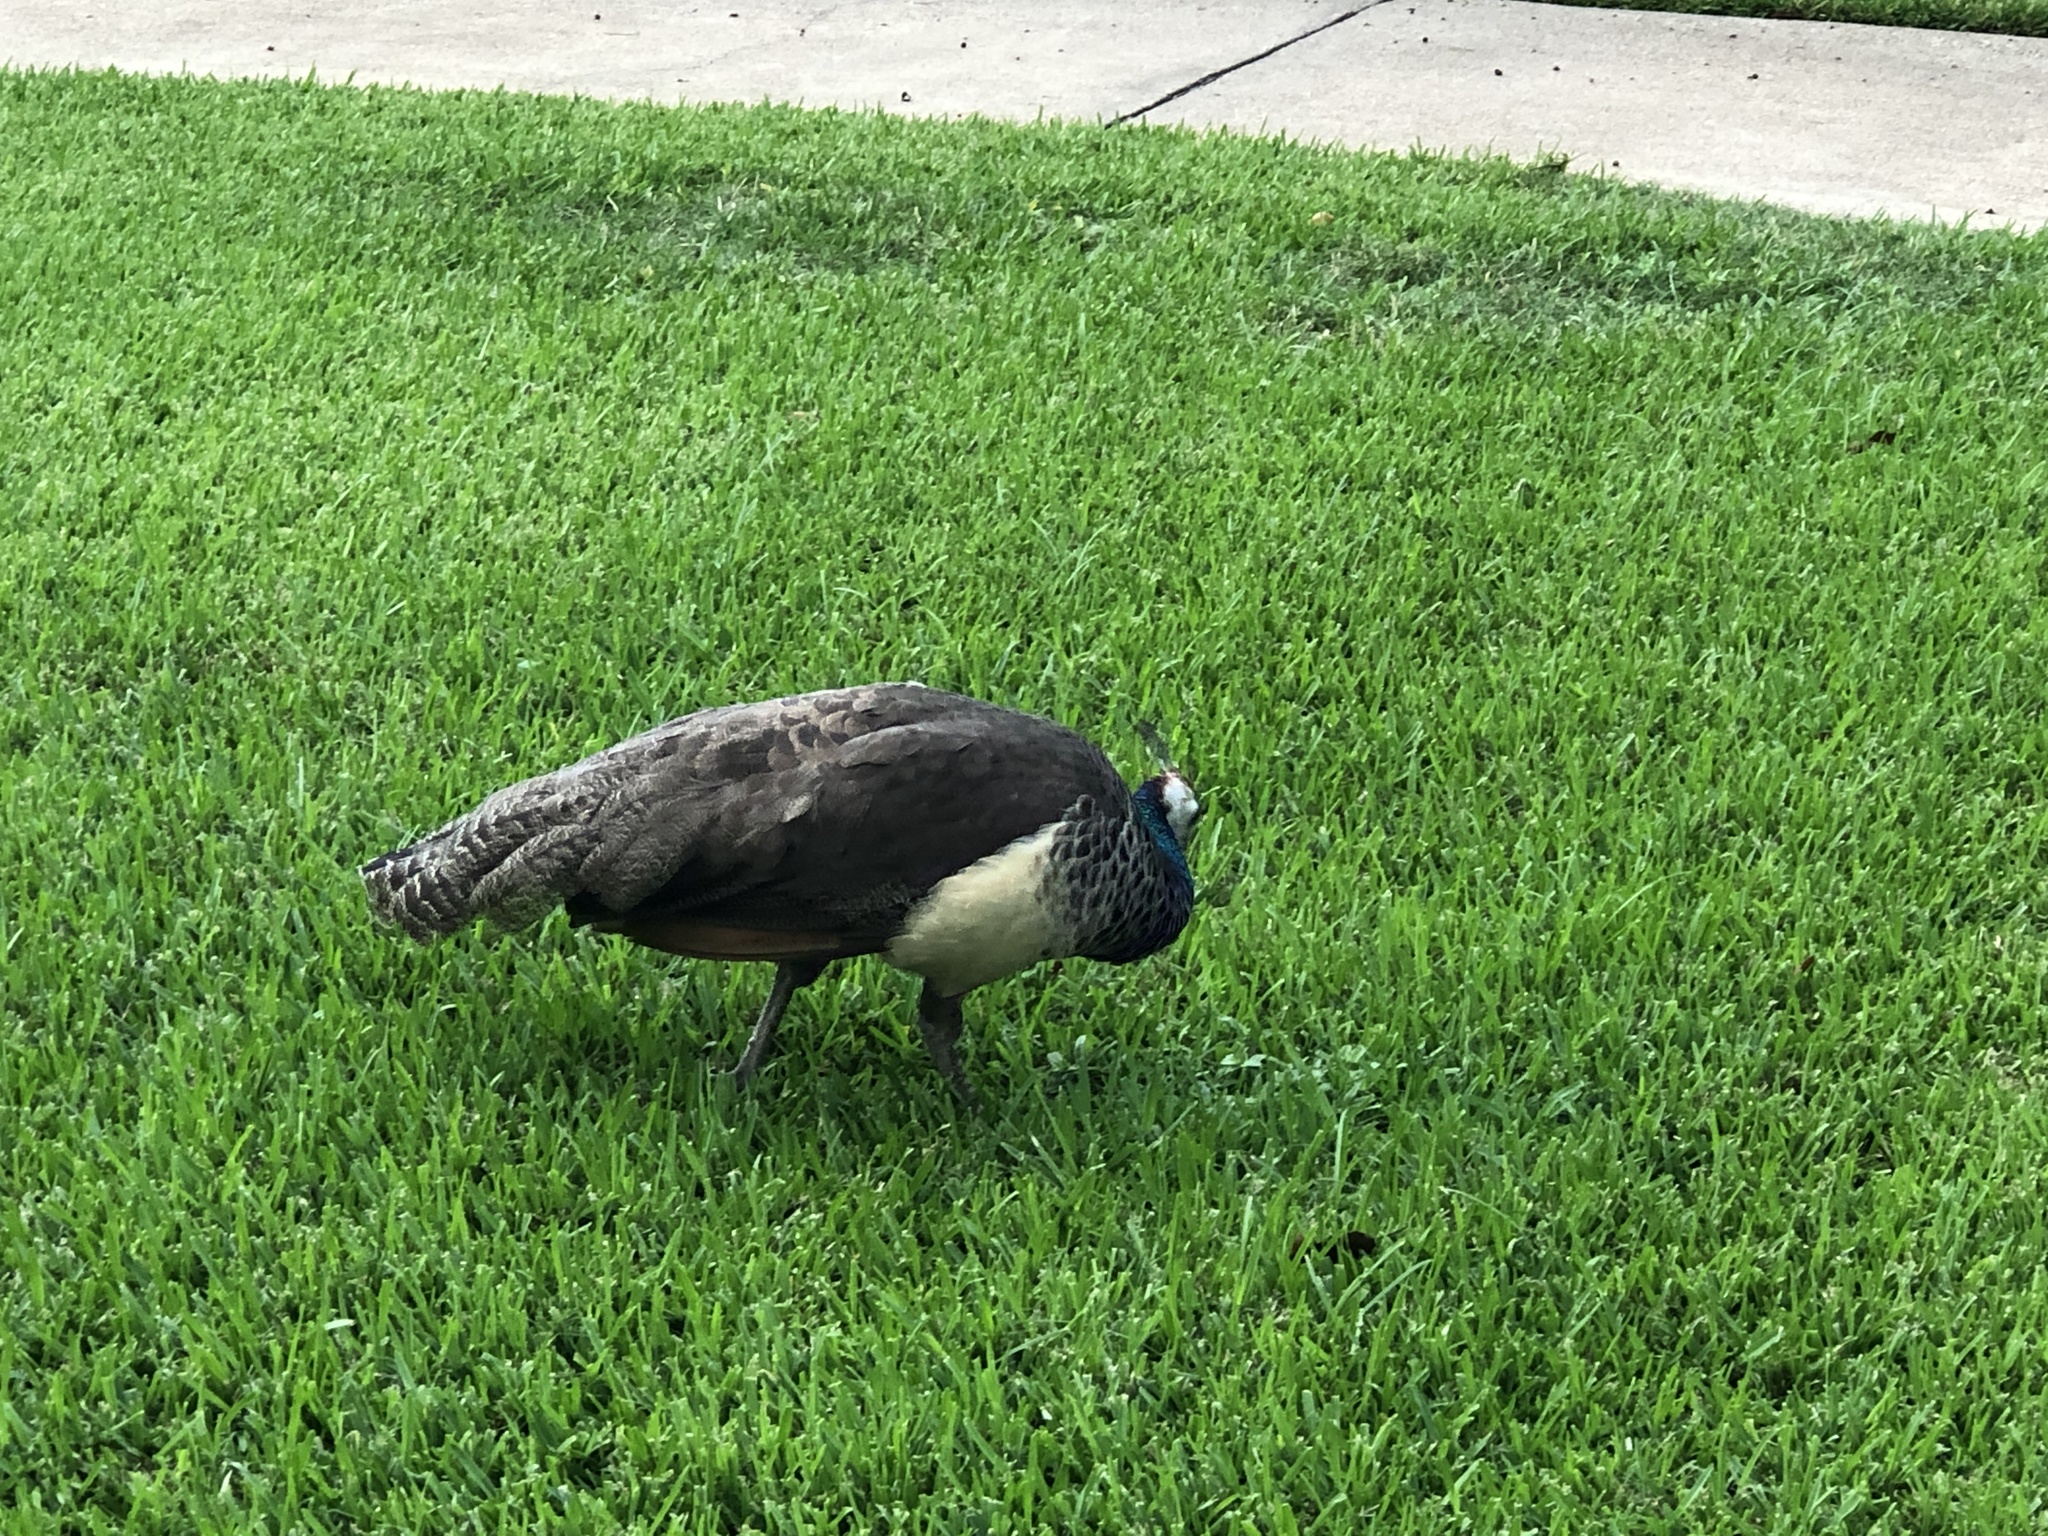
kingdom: Animalia
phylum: Chordata
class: Aves
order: Galliformes
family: Phasianidae
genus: Pavo
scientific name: Pavo cristatus
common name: Indian peafowl
